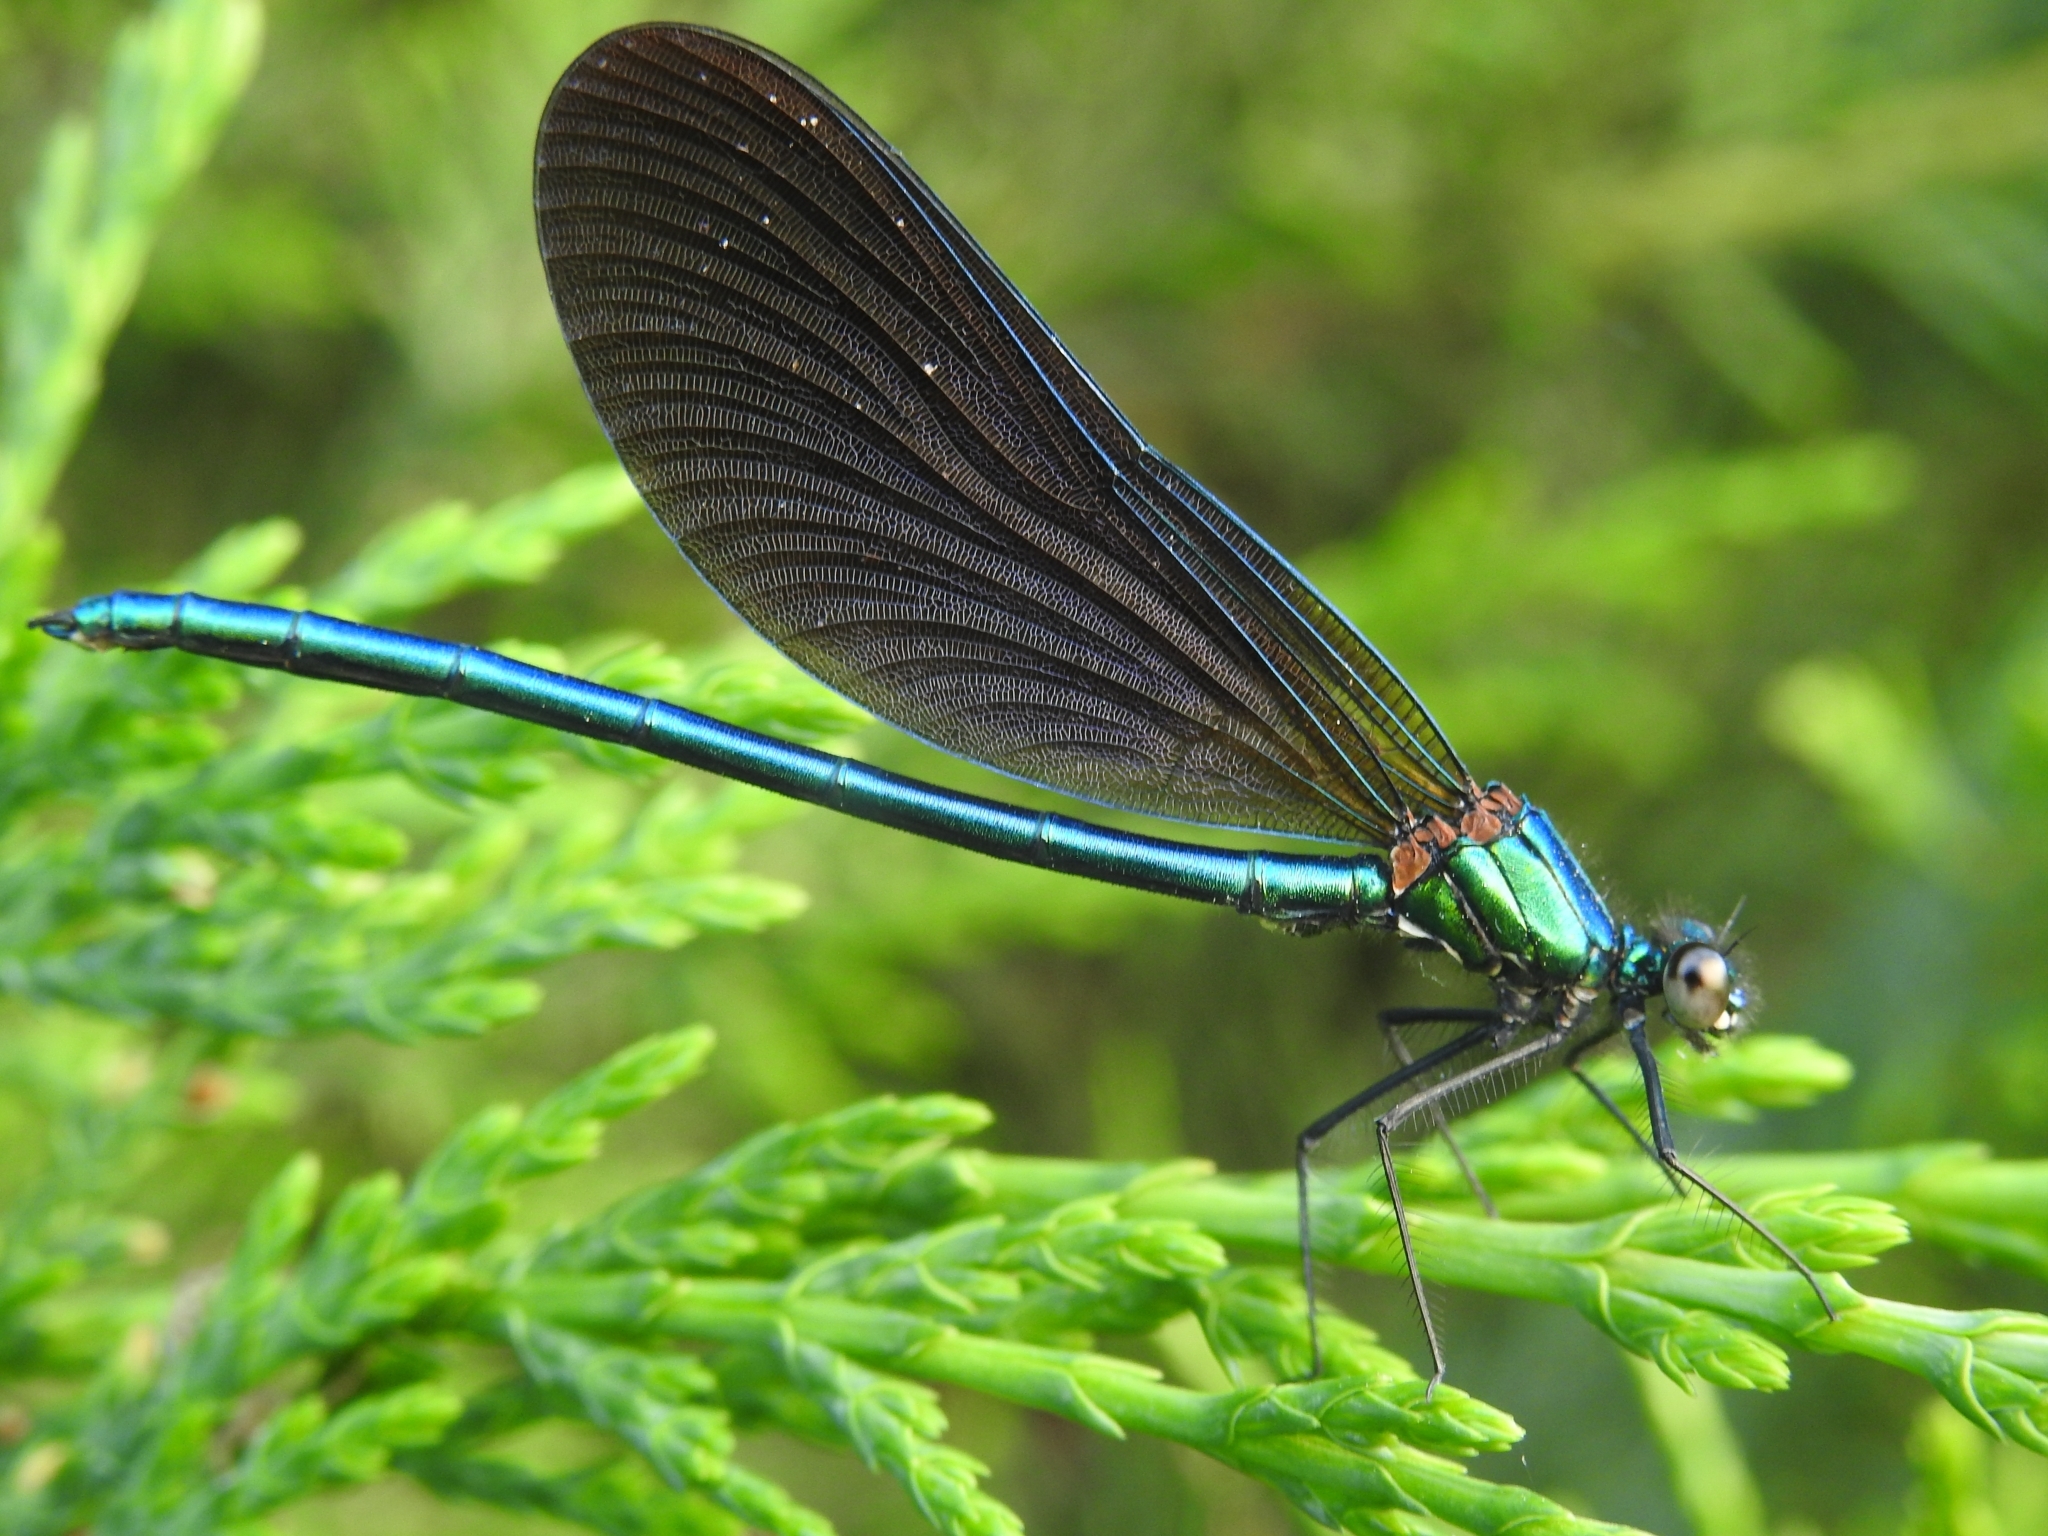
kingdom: Animalia
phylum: Arthropoda
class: Insecta
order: Odonata
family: Calopterygidae
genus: Calopteryx
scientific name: Calopteryx virgo
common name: Beautiful demoiselle
